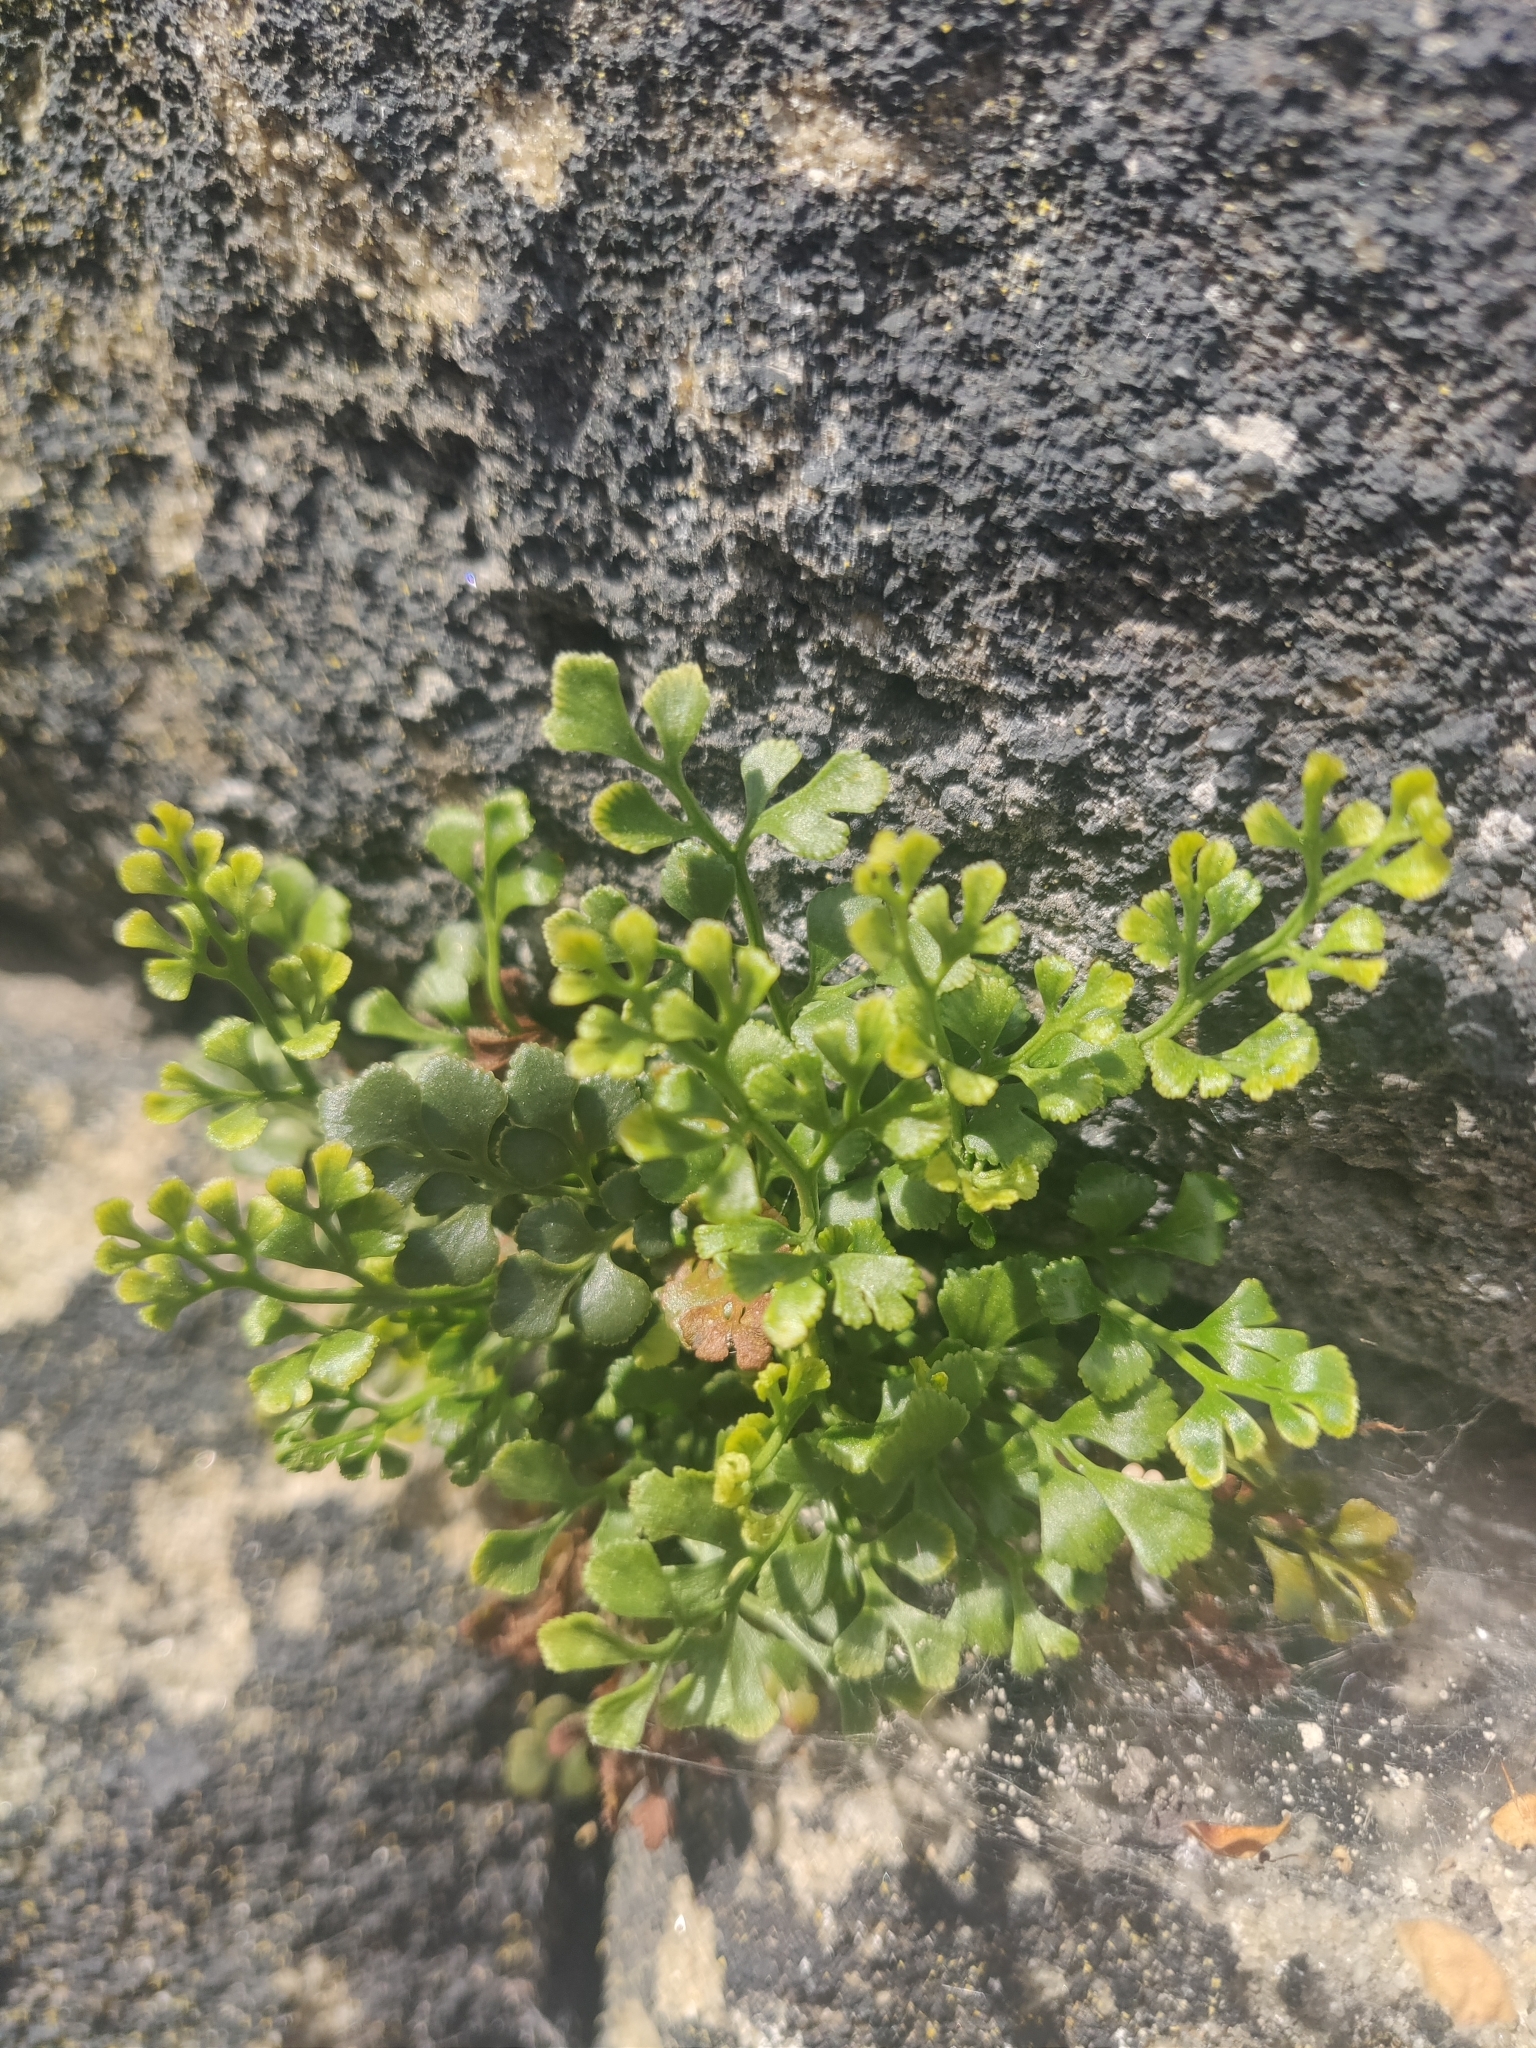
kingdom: Plantae
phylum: Tracheophyta
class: Polypodiopsida
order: Polypodiales
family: Aspleniaceae
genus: Asplenium
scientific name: Asplenium ruta-muraria
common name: Wall-rue
